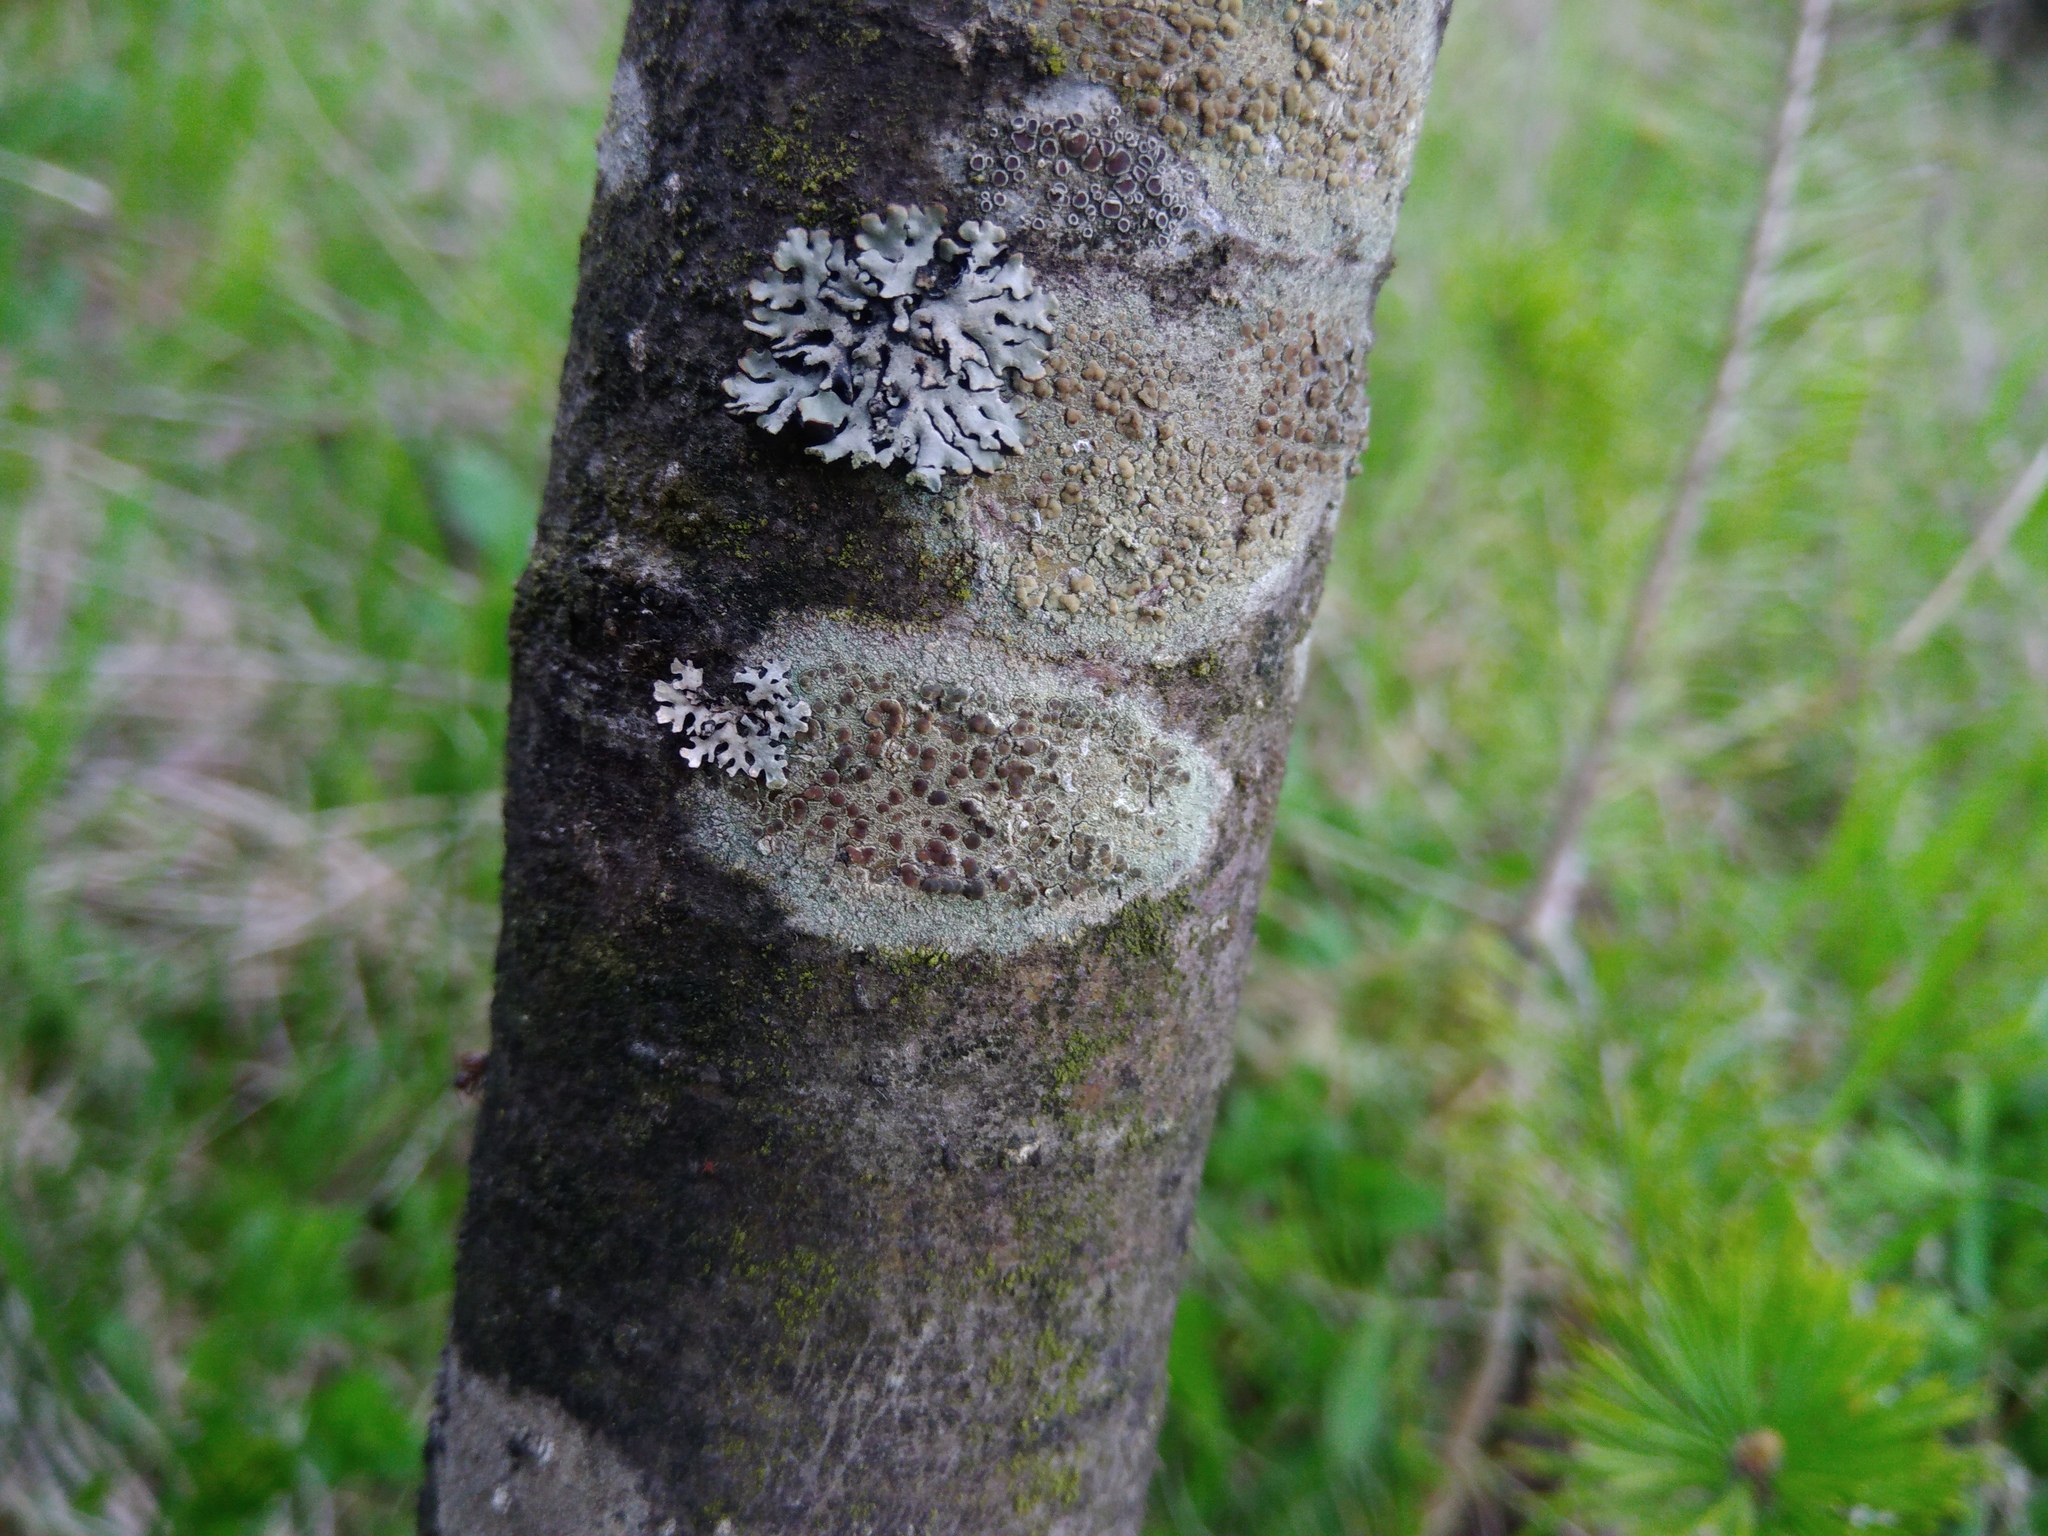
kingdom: Fungi
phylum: Ascomycota
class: Lecanoromycetes
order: Lecanorales
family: Lecanoraceae
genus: Lecanora
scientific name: Lecanora symmicta
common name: Fused rim lichen
